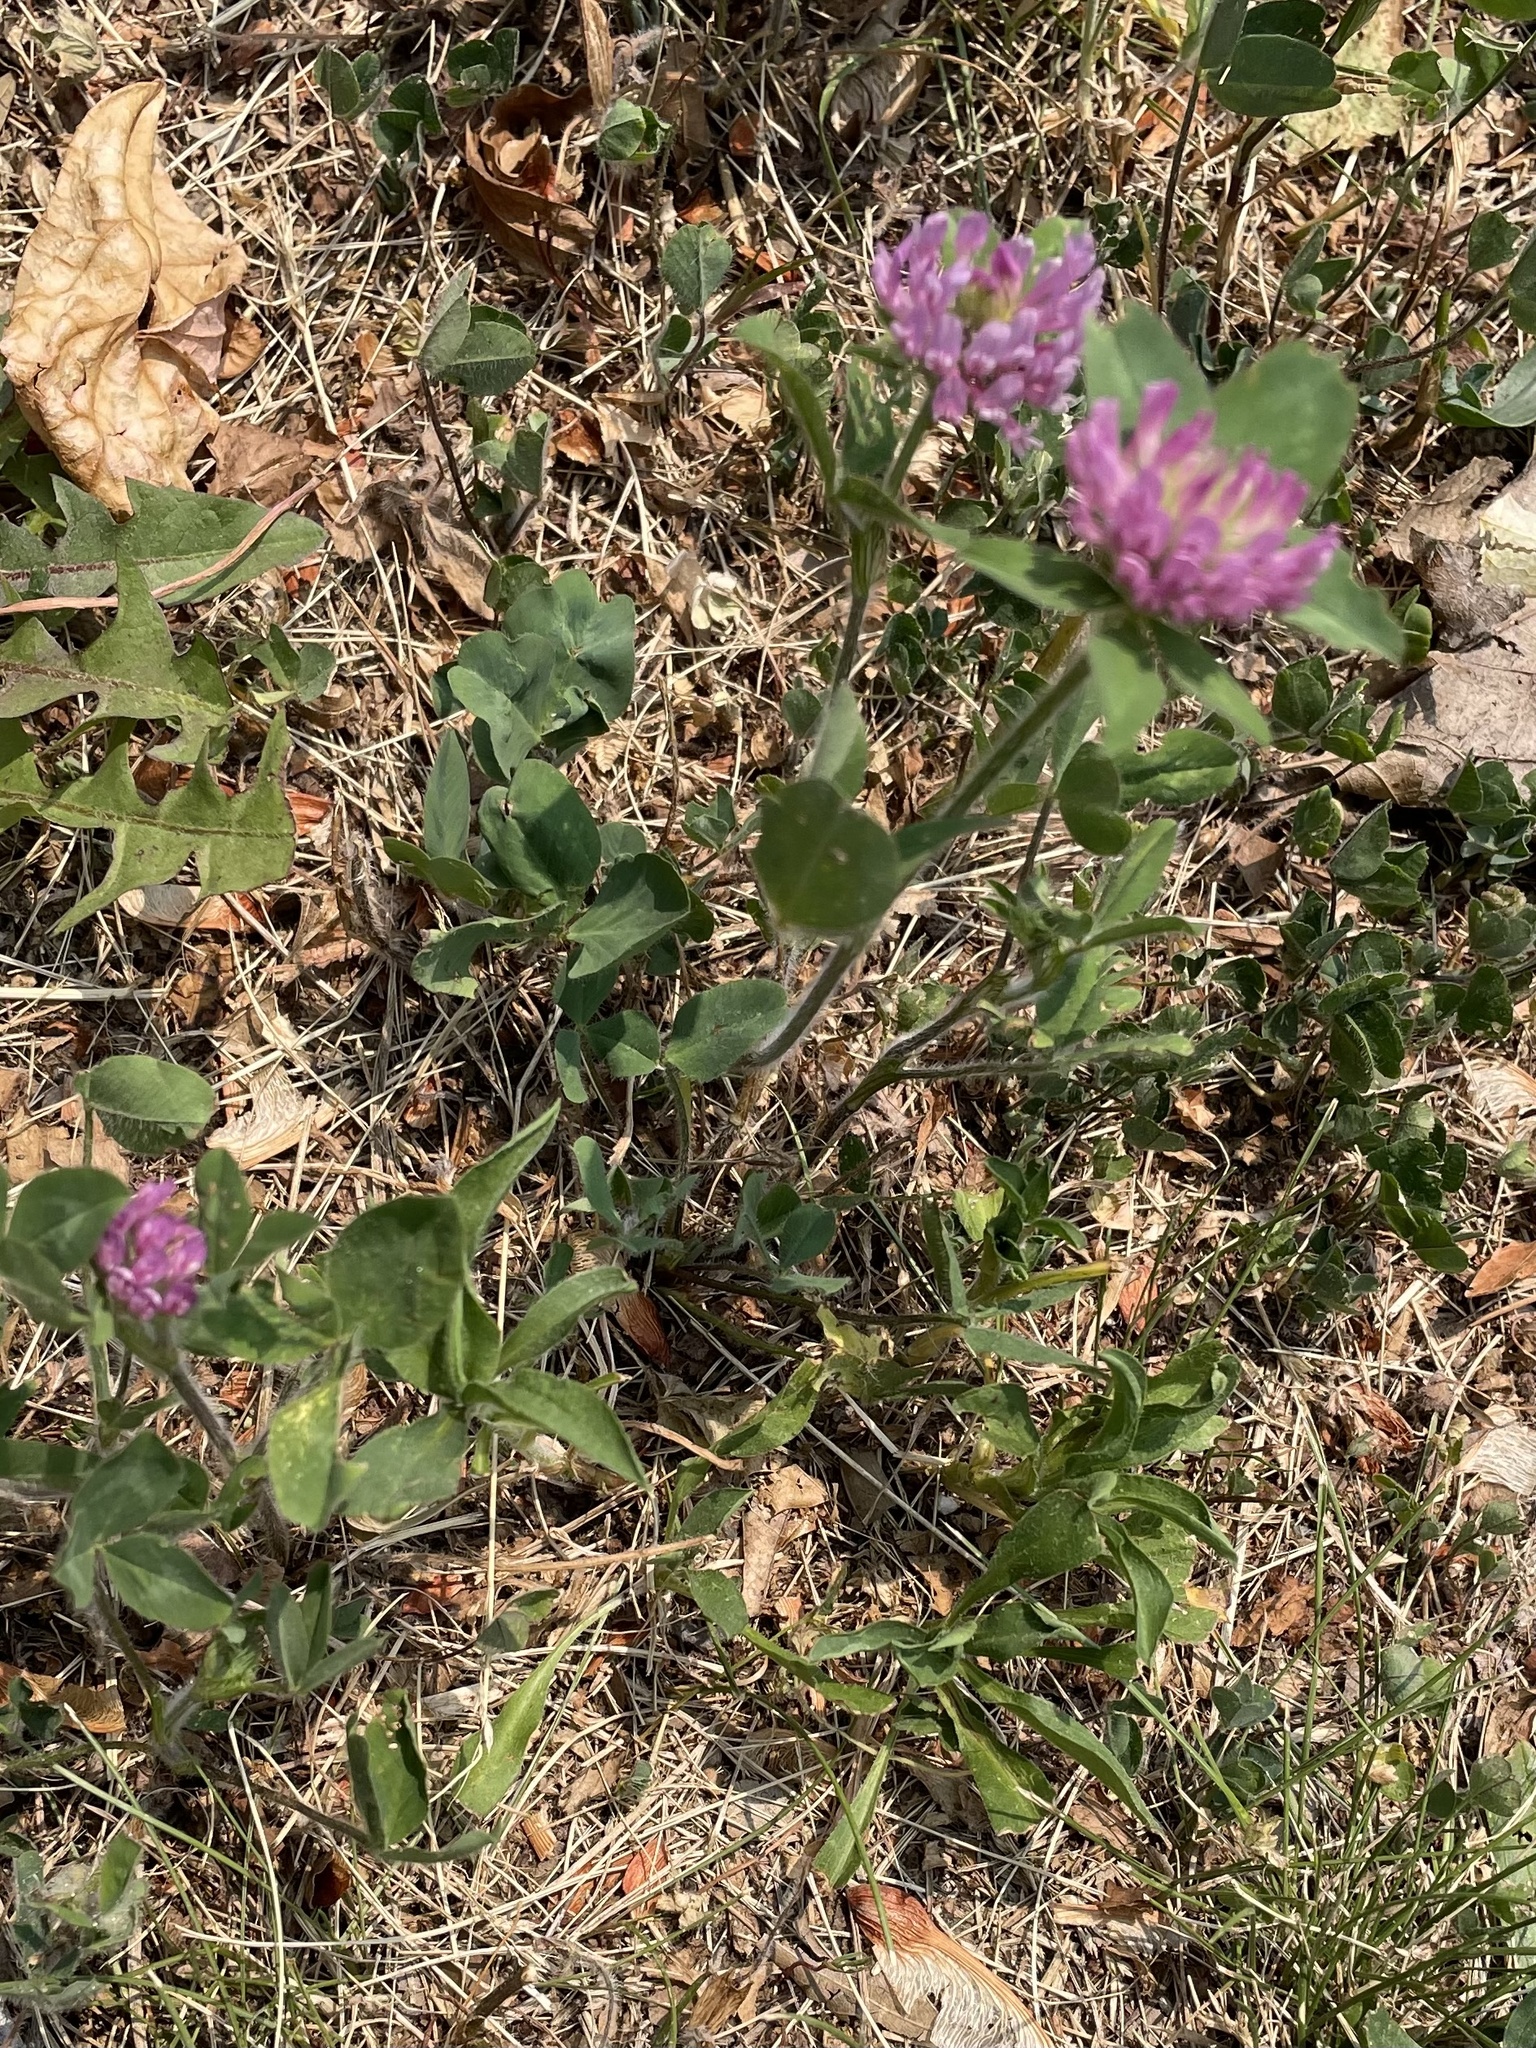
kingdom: Plantae
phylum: Tracheophyta
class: Magnoliopsida
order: Fabales
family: Fabaceae
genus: Trifolium
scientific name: Trifolium pratense
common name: Red clover
